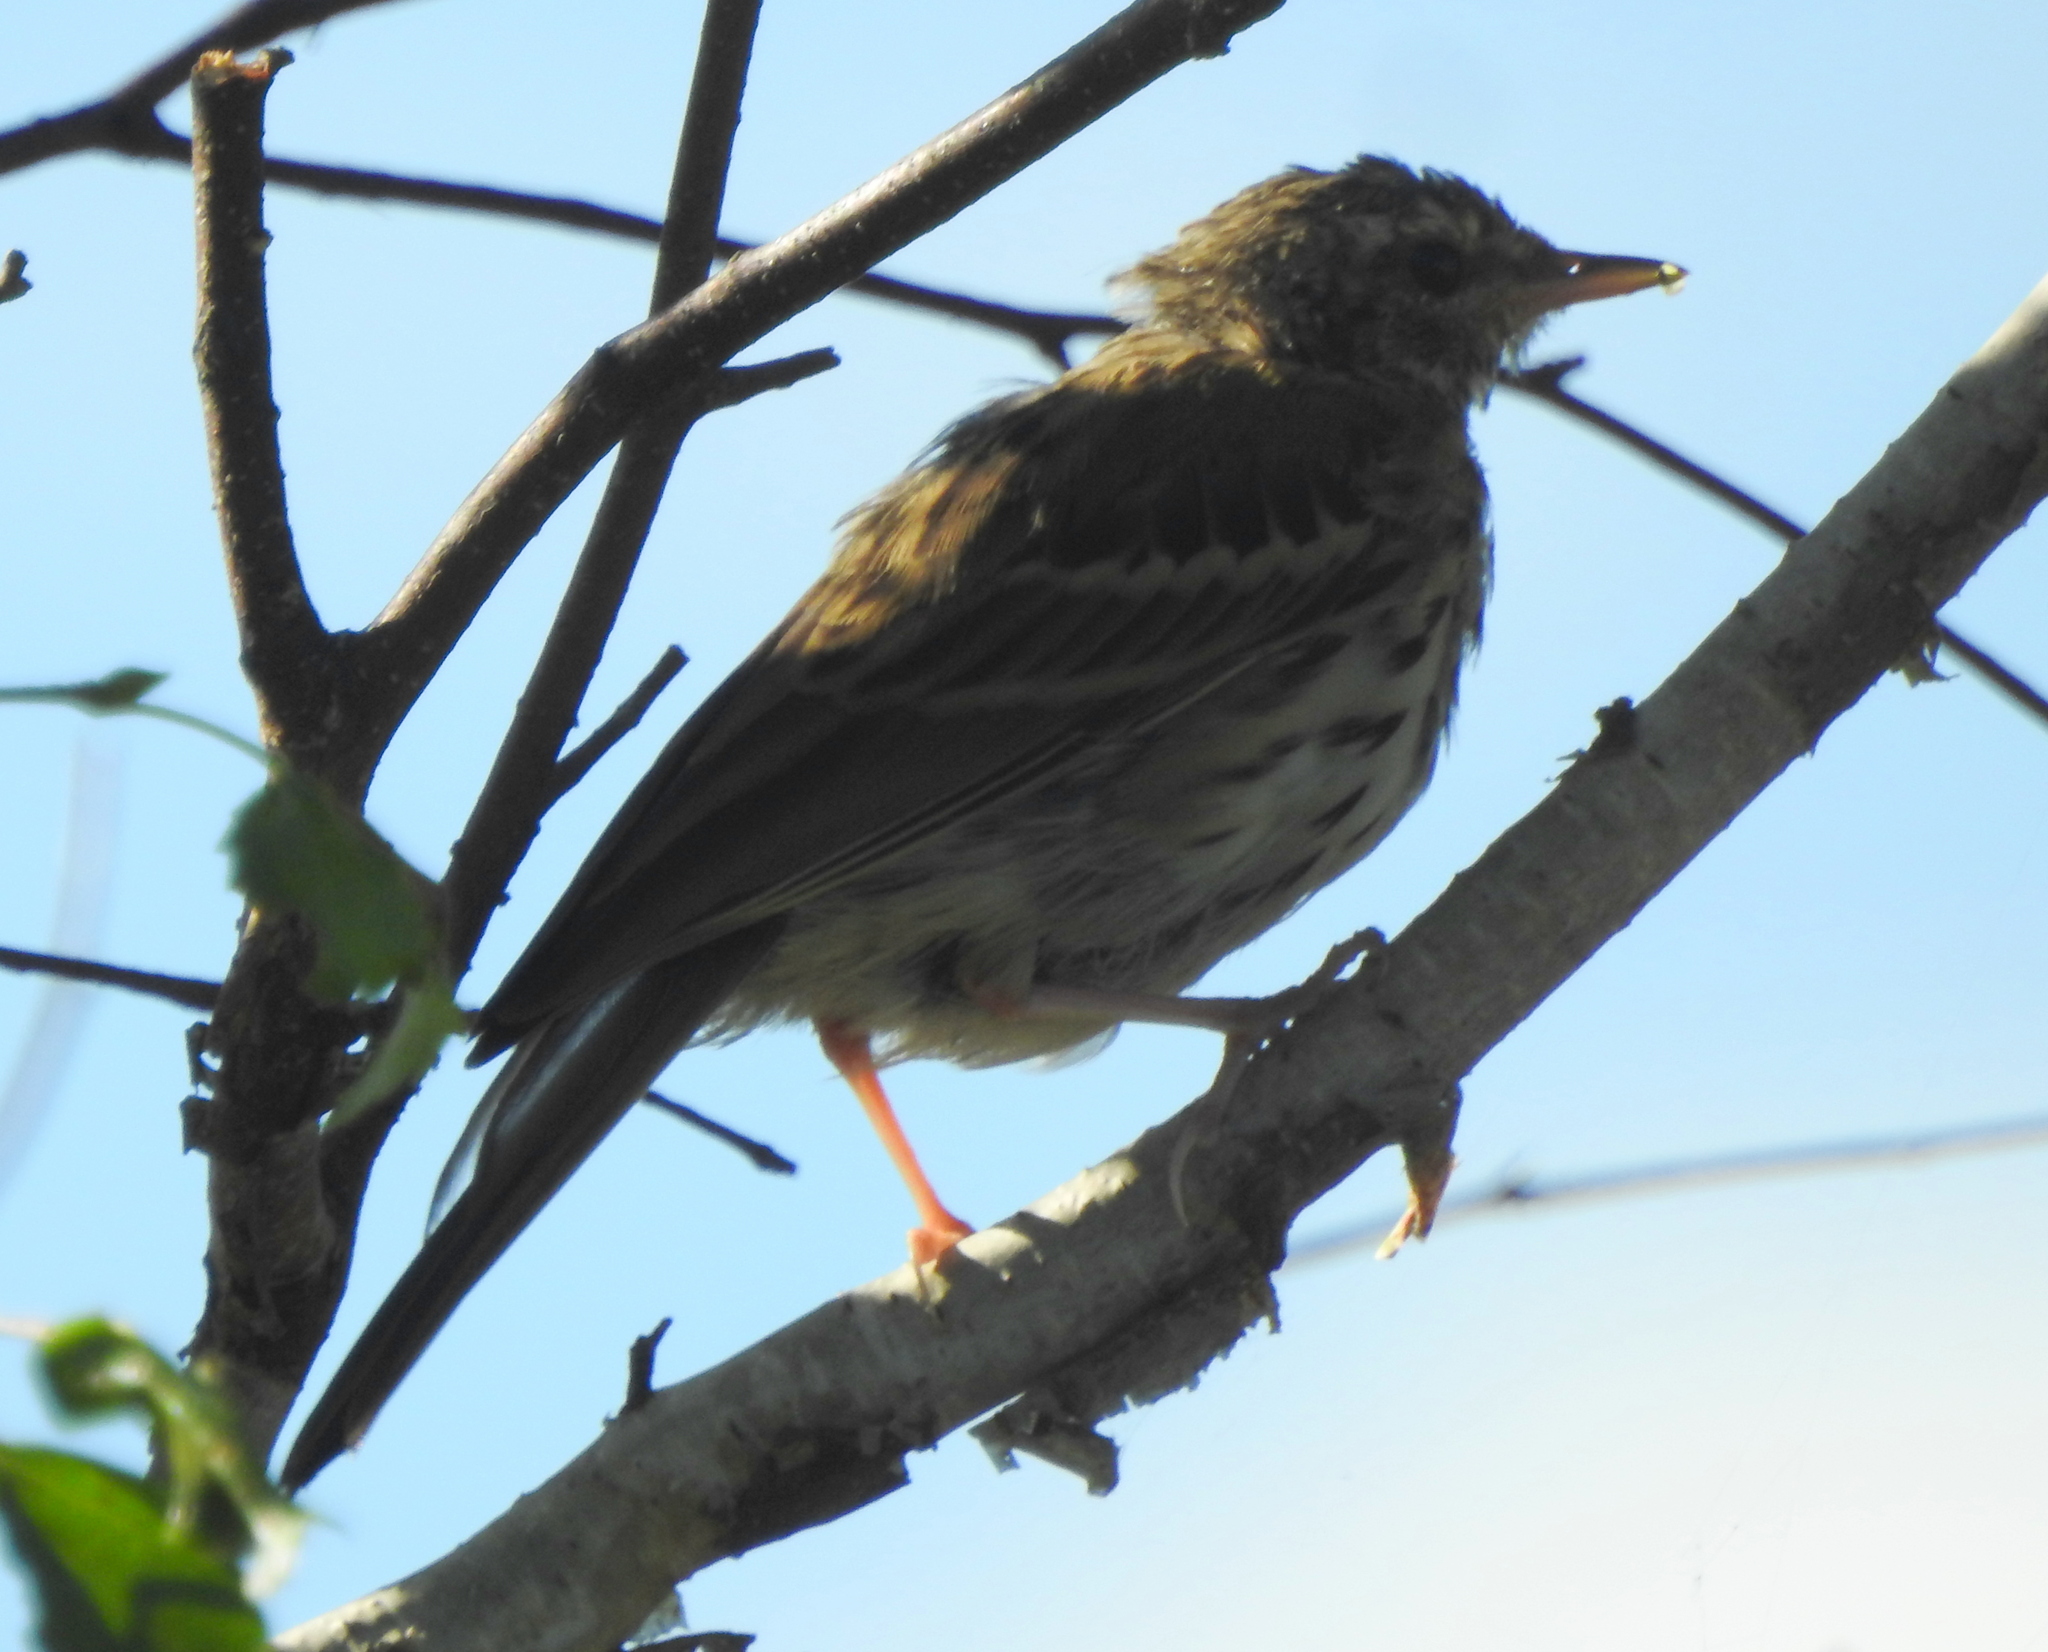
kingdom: Animalia
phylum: Chordata
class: Aves
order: Passeriformes
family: Motacillidae
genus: Anthus
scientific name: Anthus hodgsoni
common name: Olive-backed pipit
